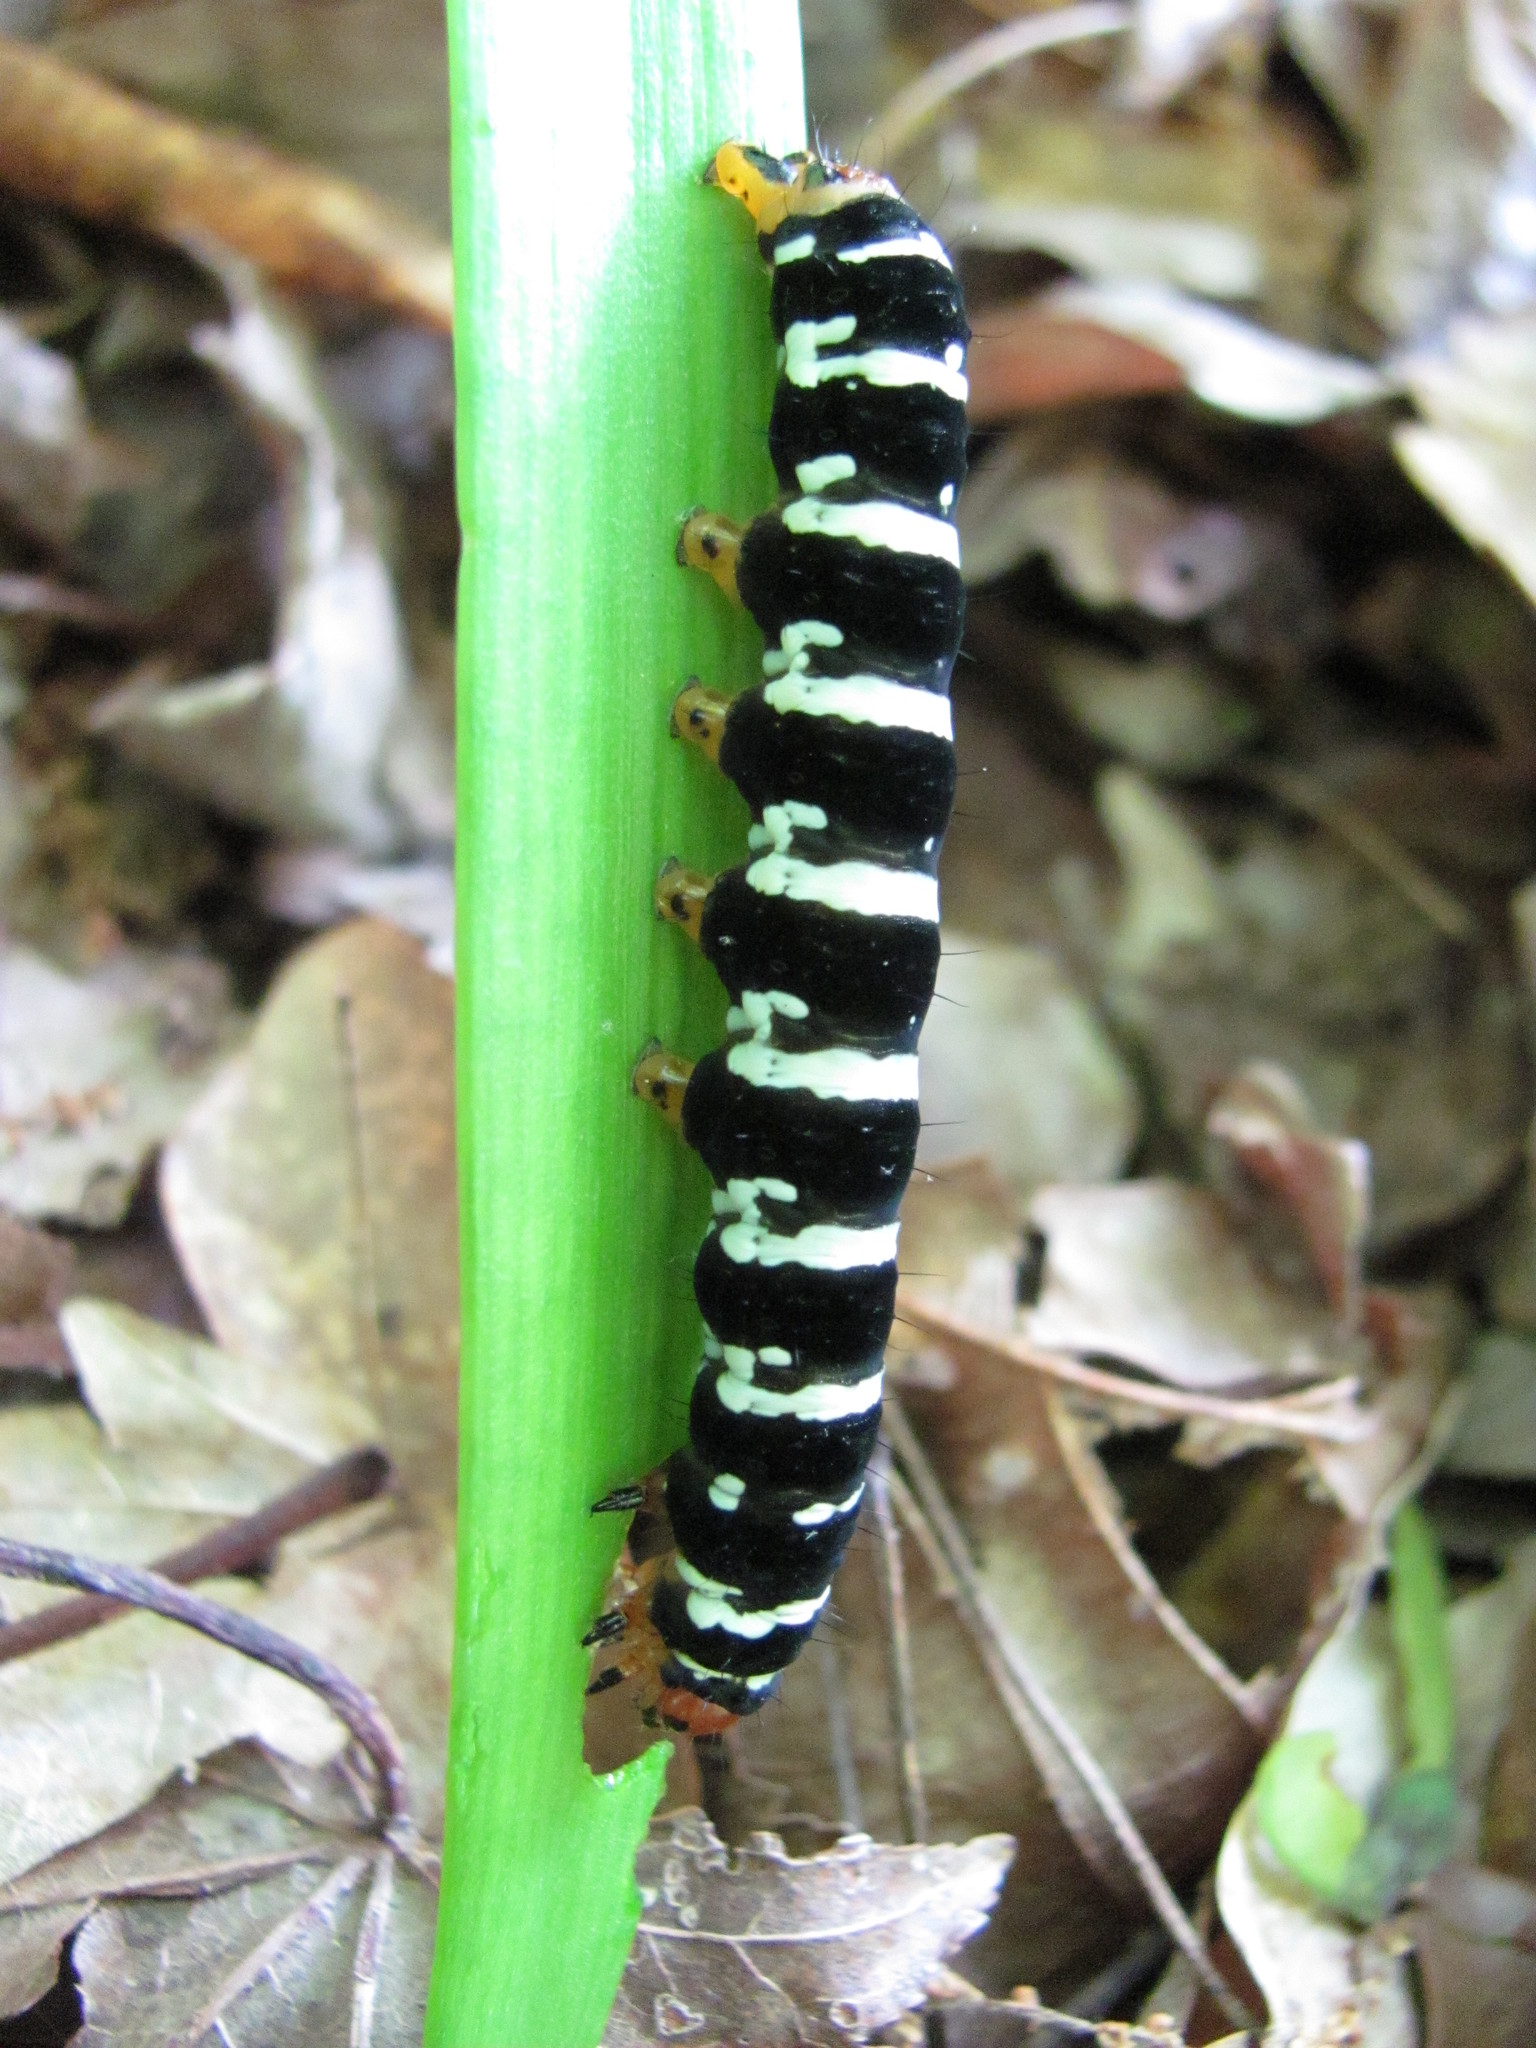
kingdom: Animalia
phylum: Arthropoda
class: Insecta
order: Lepidoptera
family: Noctuidae
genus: Xanthopastis
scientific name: Xanthopastis regnatrix
